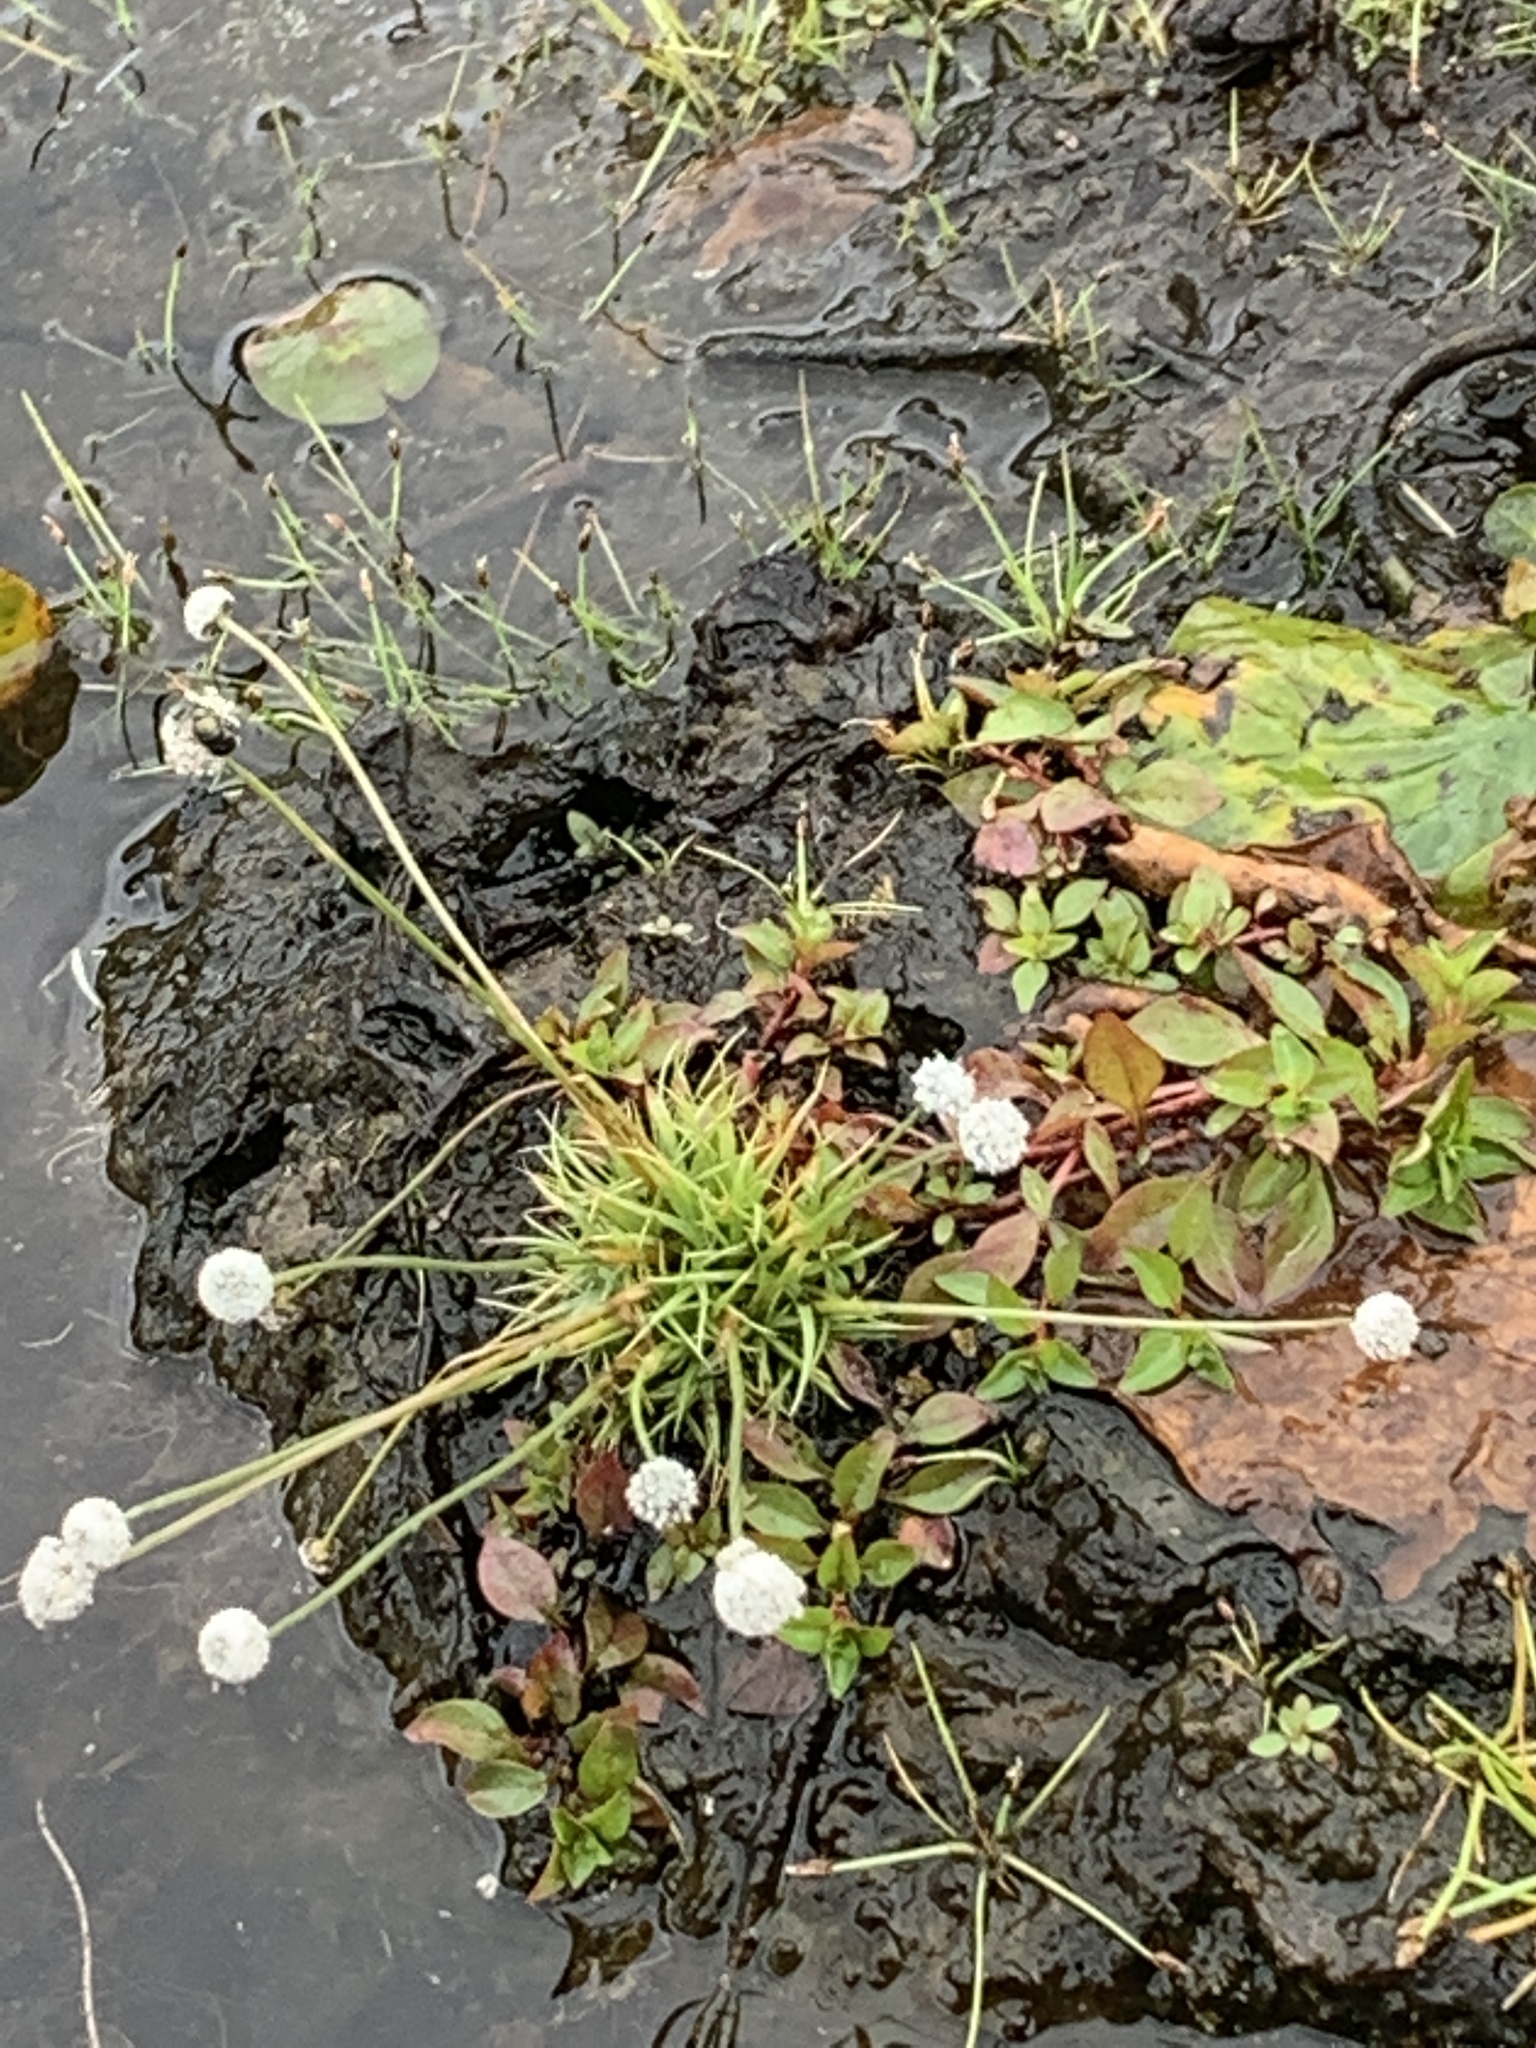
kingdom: Plantae
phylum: Tracheophyta
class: Liliopsida
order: Poales
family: Eriocaulaceae
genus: Eriocaulon
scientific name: Eriocaulon aquaticum
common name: Pipewort
